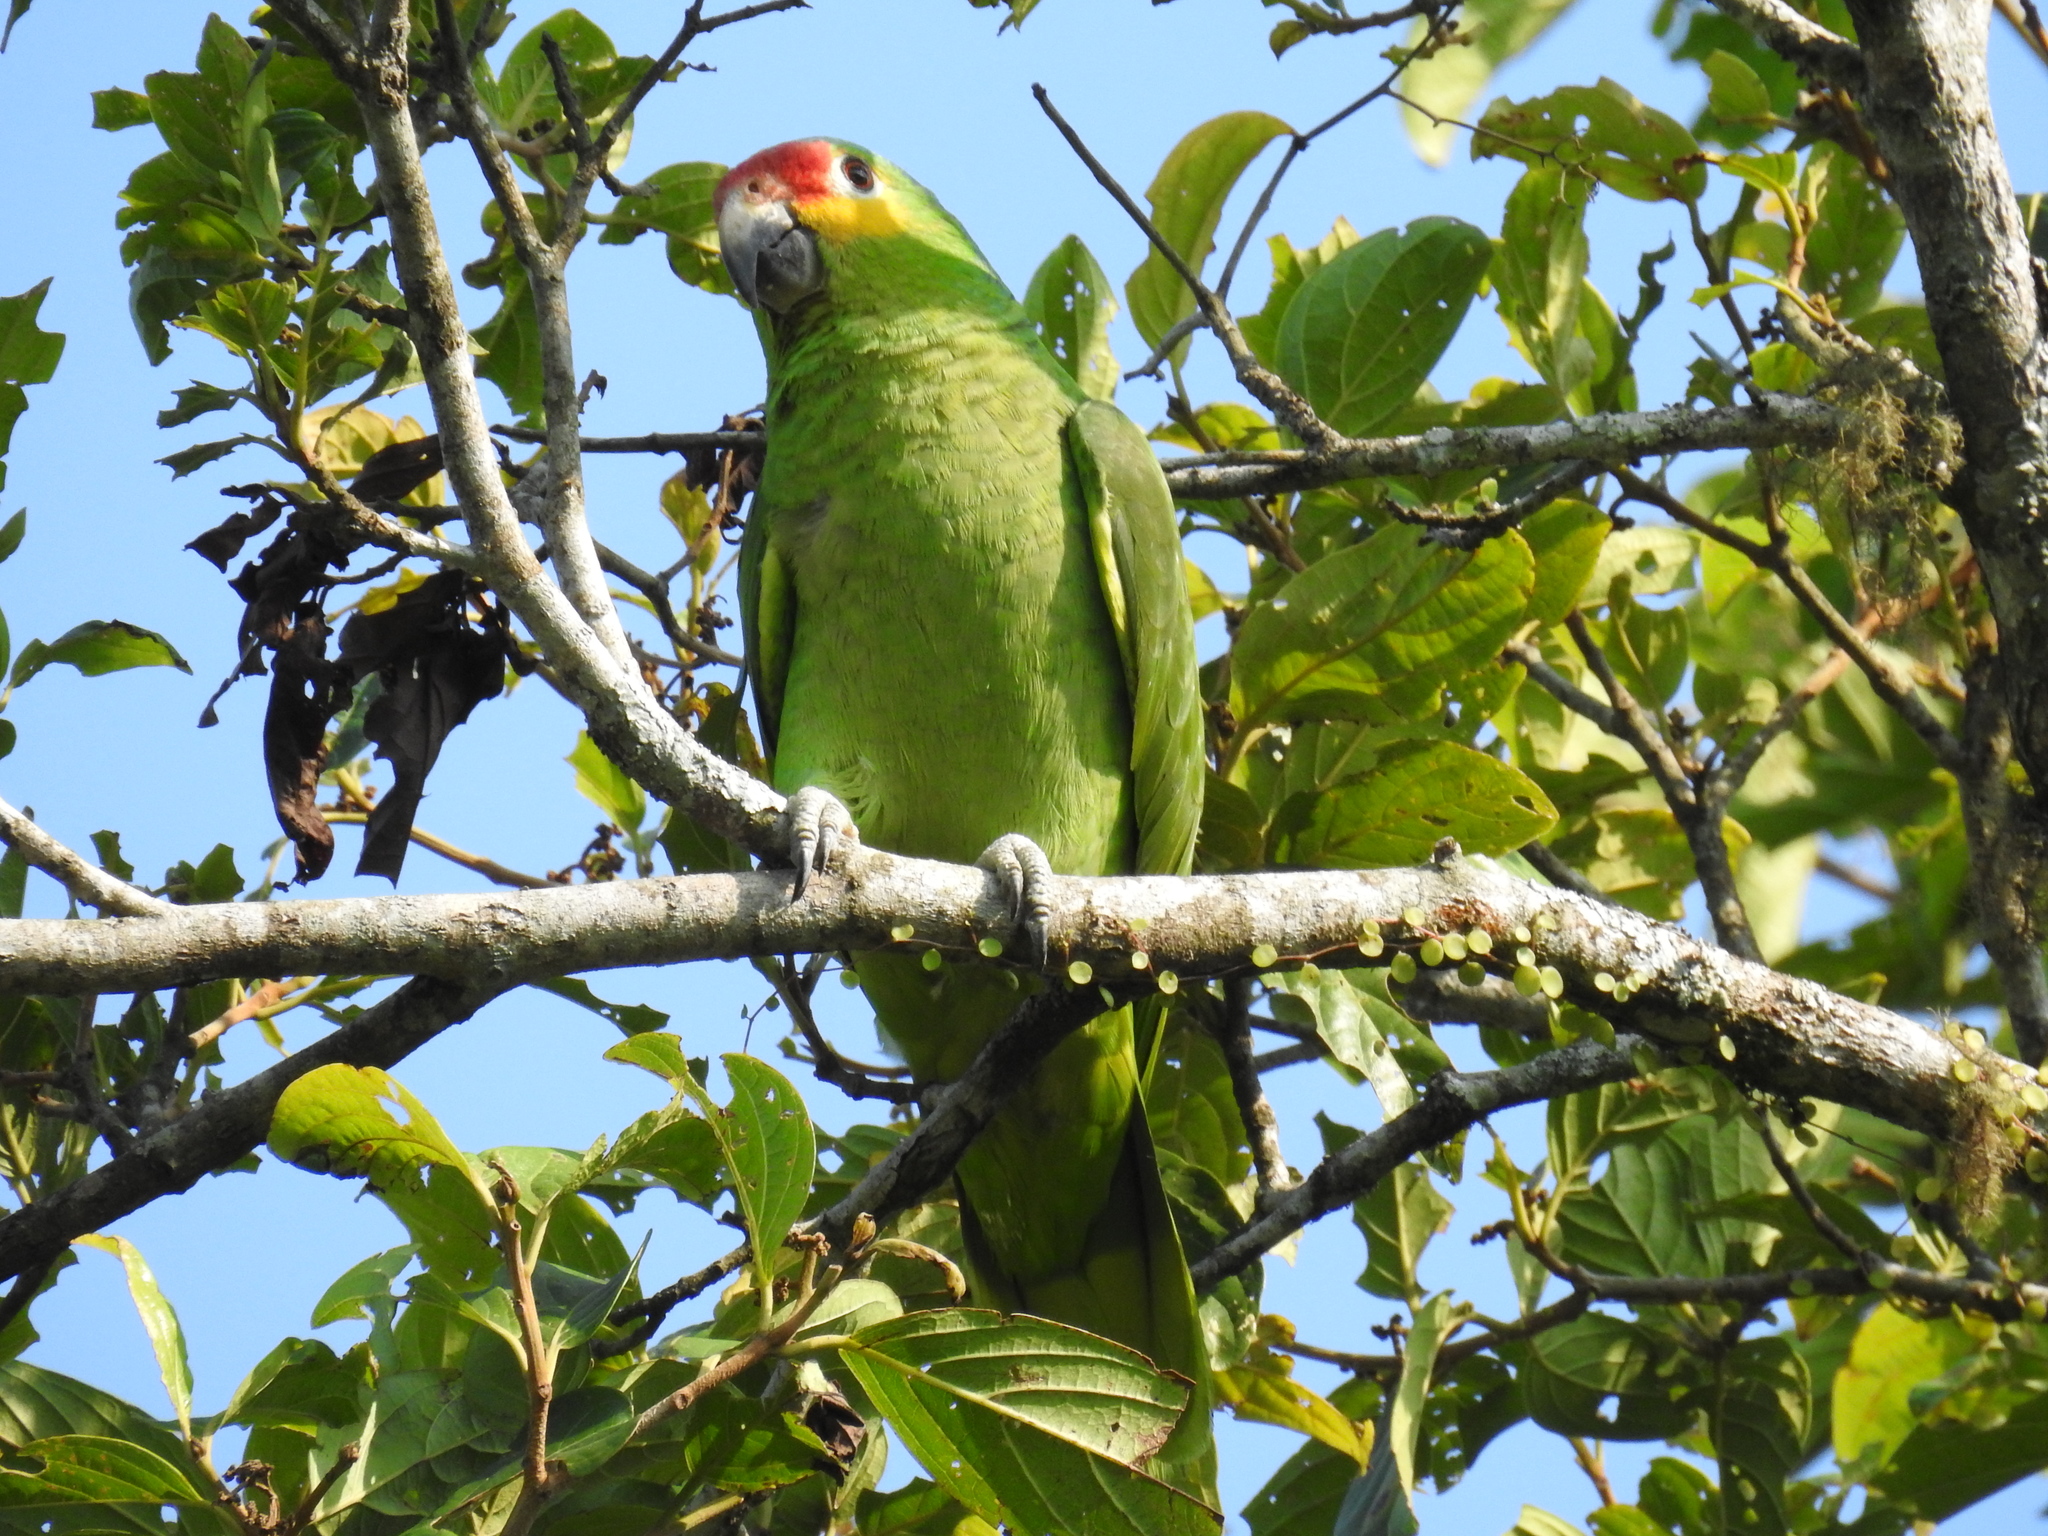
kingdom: Animalia
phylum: Chordata
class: Aves
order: Psittaciformes
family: Psittacidae
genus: Amazona
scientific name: Amazona autumnalis
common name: Red-lored amazon
